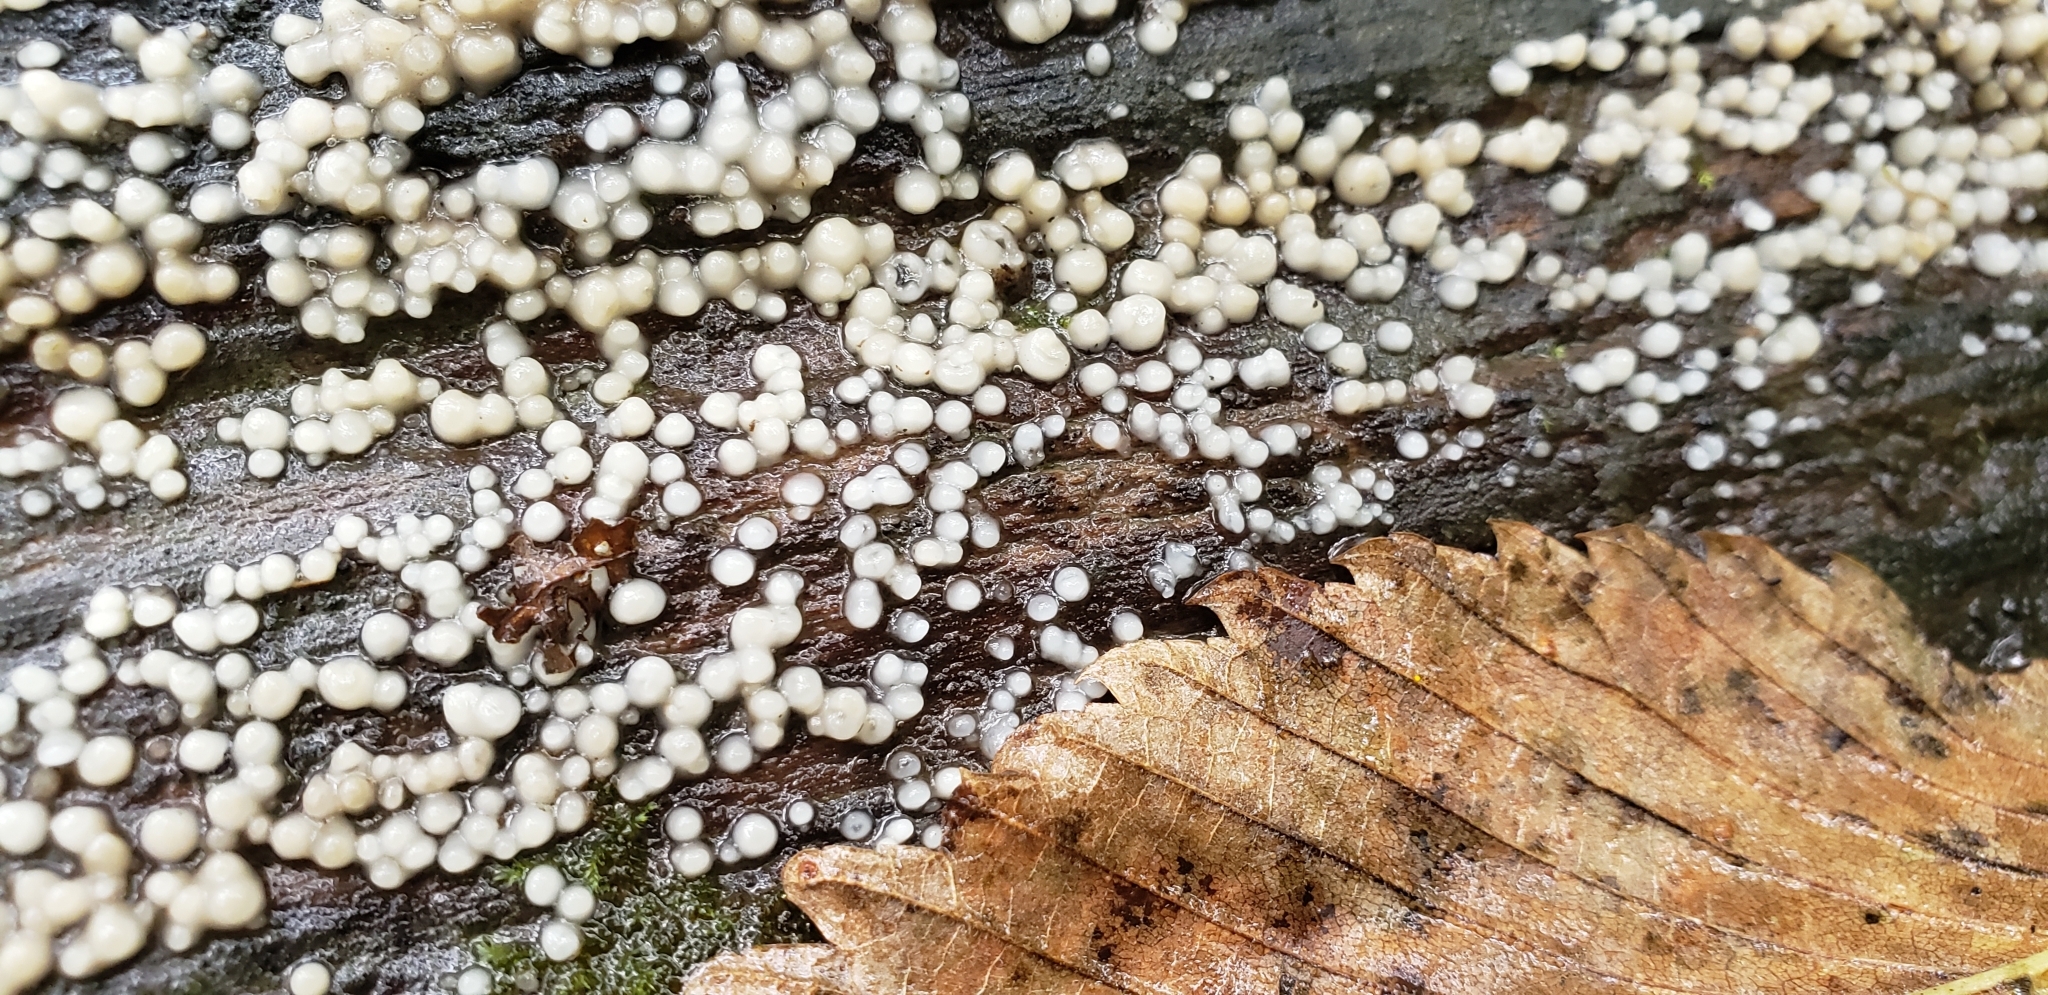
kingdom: Fungi
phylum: Basidiomycota
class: Atractiellomycetes
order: Atractiellales
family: Phleogenaceae
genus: Helicogloea
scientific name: Helicogloea compressa
